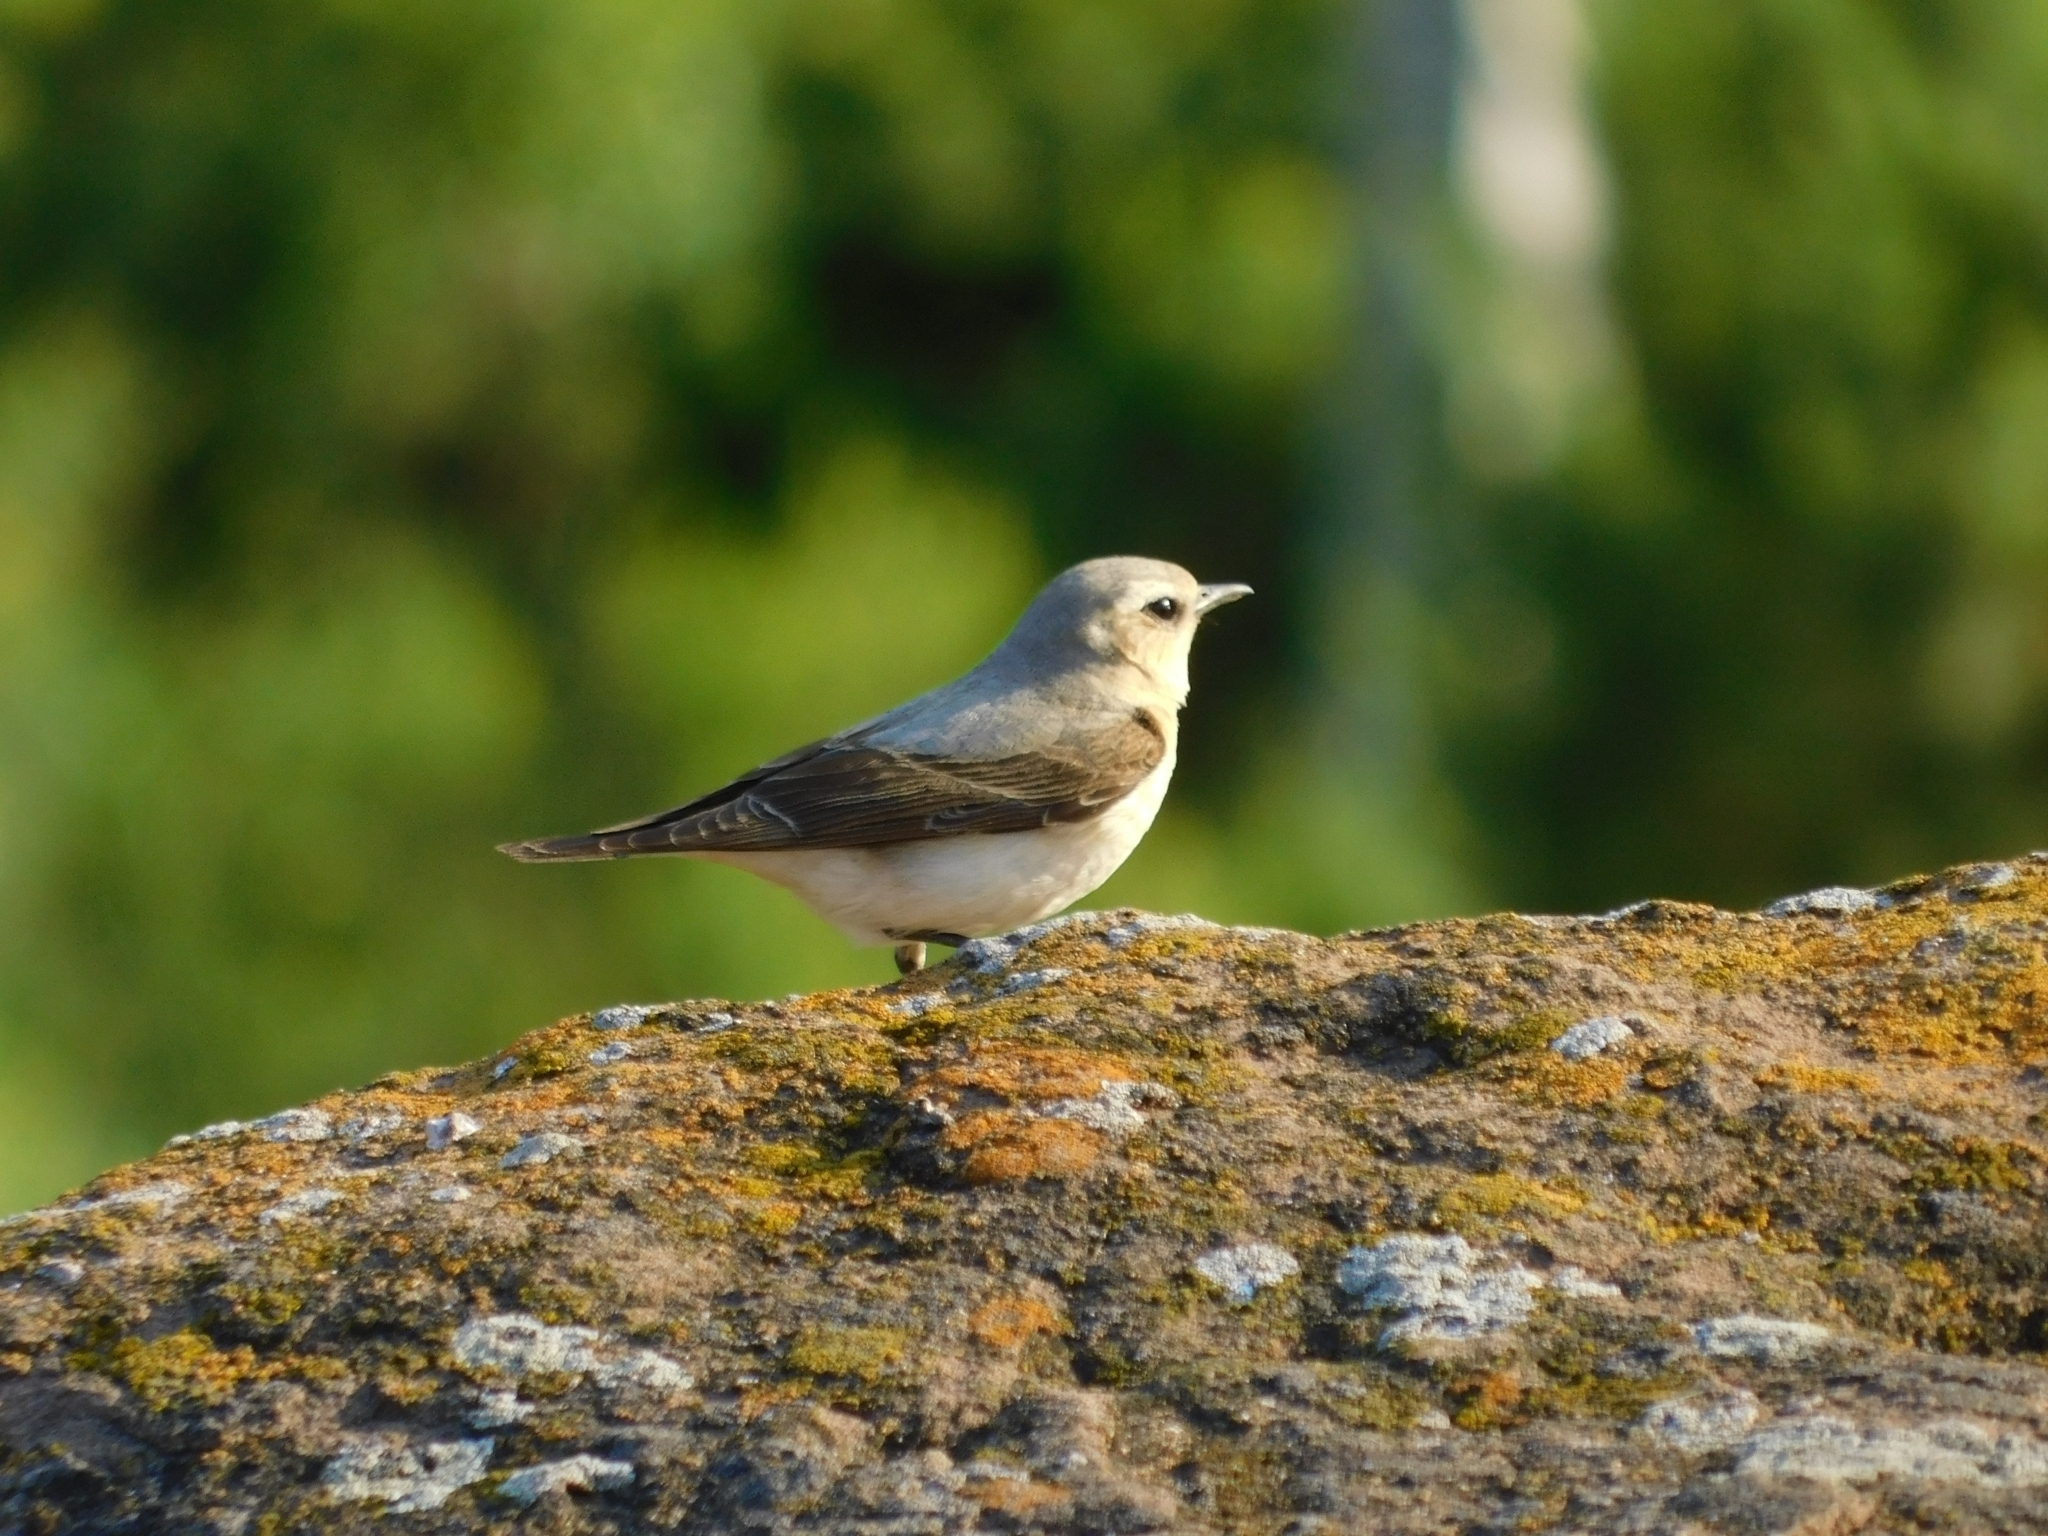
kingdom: Animalia
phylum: Chordata
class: Aves
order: Passeriformes
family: Muscicapidae
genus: Oenanthe
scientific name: Oenanthe oenanthe
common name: Northern wheatear
